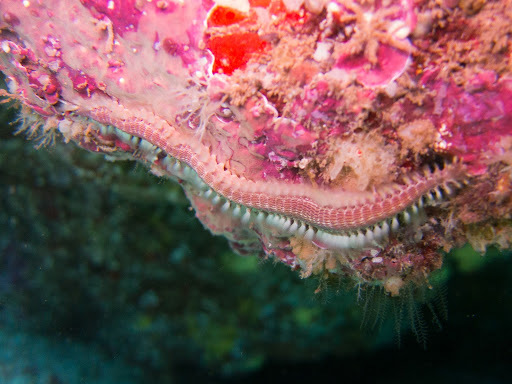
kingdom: Animalia
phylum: Annelida
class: Polychaeta
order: Amphinomida
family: Amphinomidae
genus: Pherecardia
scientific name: Pherecardia striata
